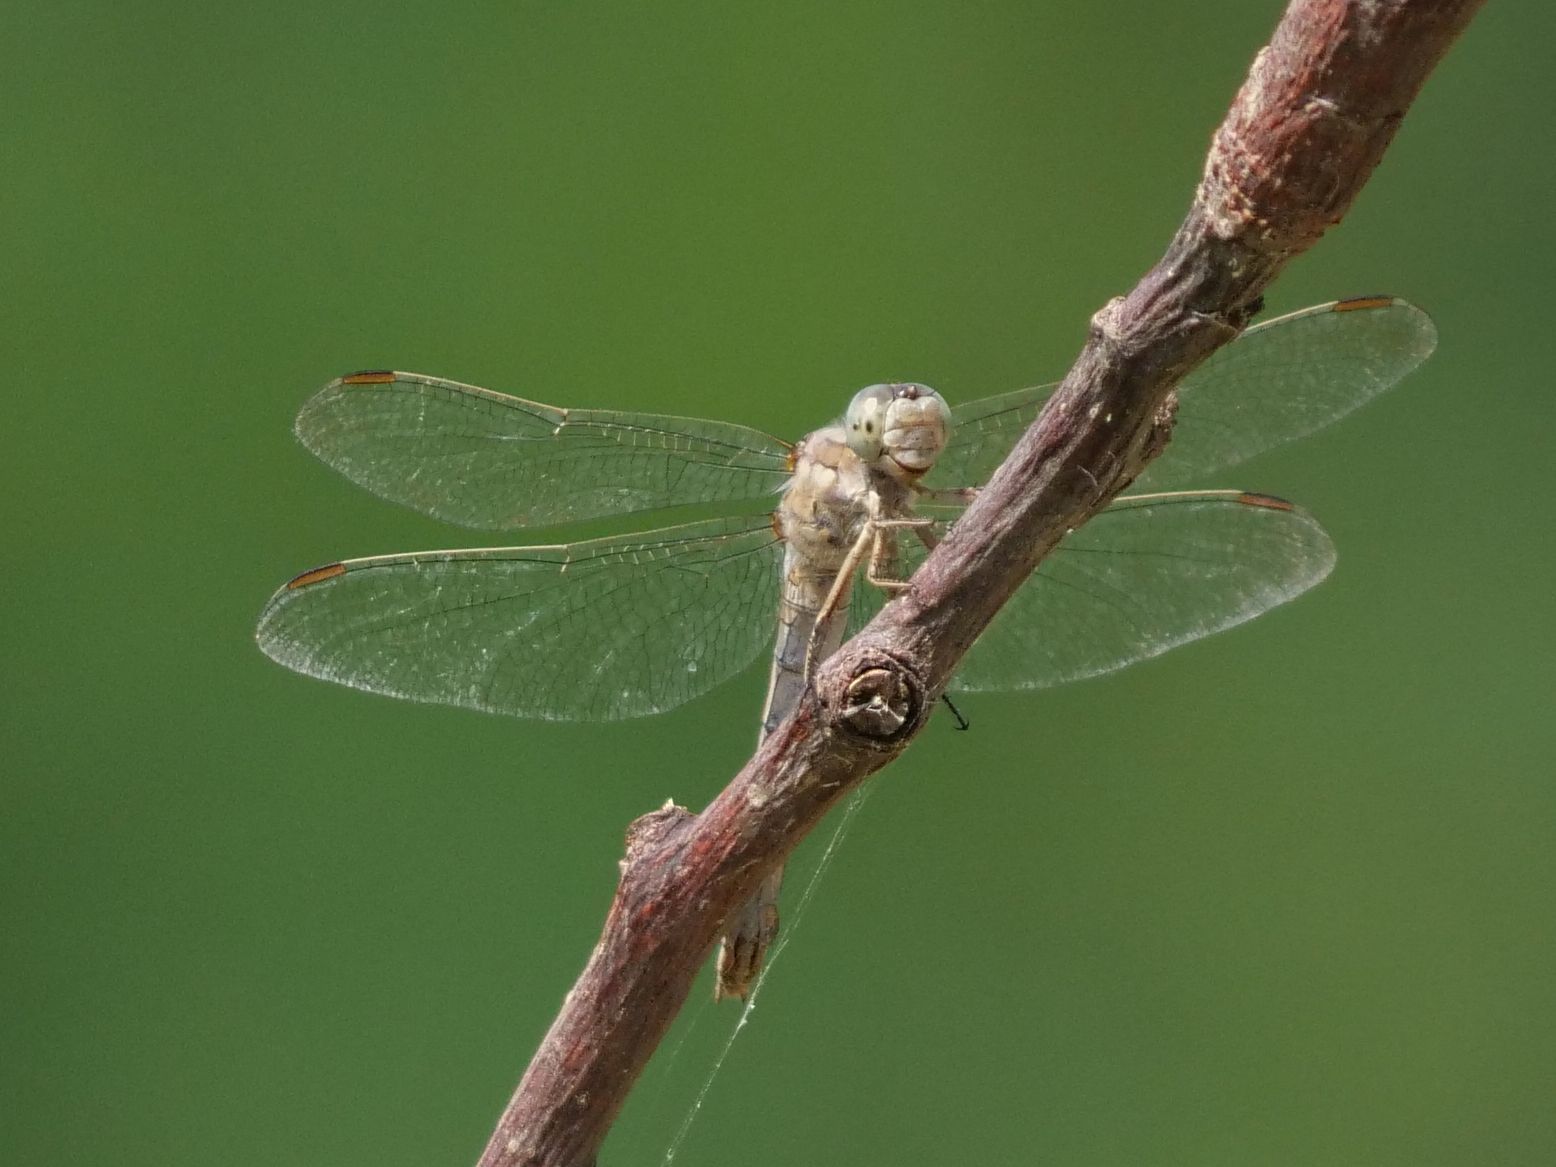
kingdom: Animalia
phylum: Arthropoda
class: Insecta
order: Odonata
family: Libellulidae
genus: Orthetrum
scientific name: Orthetrum brunneum
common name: Southern skimmer
